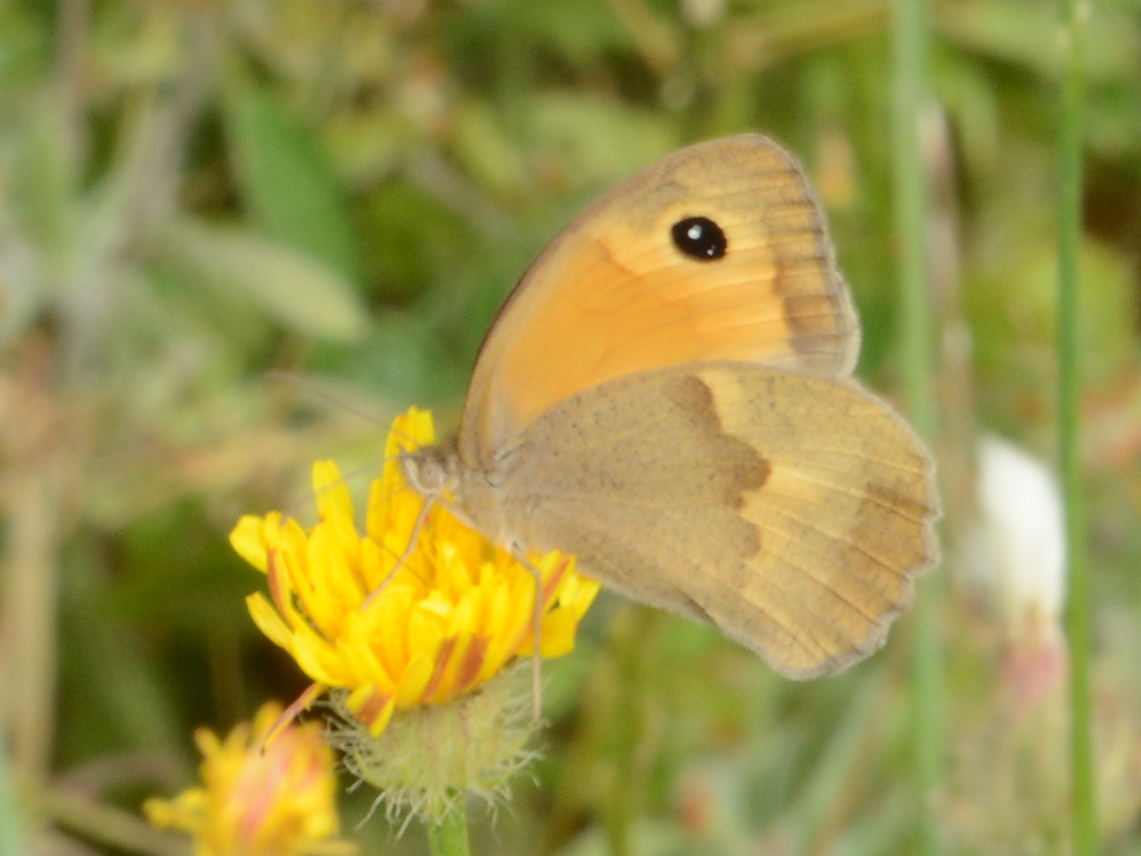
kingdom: Animalia
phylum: Arthropoda
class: Insecta
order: Lepidoptera
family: Nymphalidae
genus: Maniola
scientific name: Maniola jurtina
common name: Meadow brown
